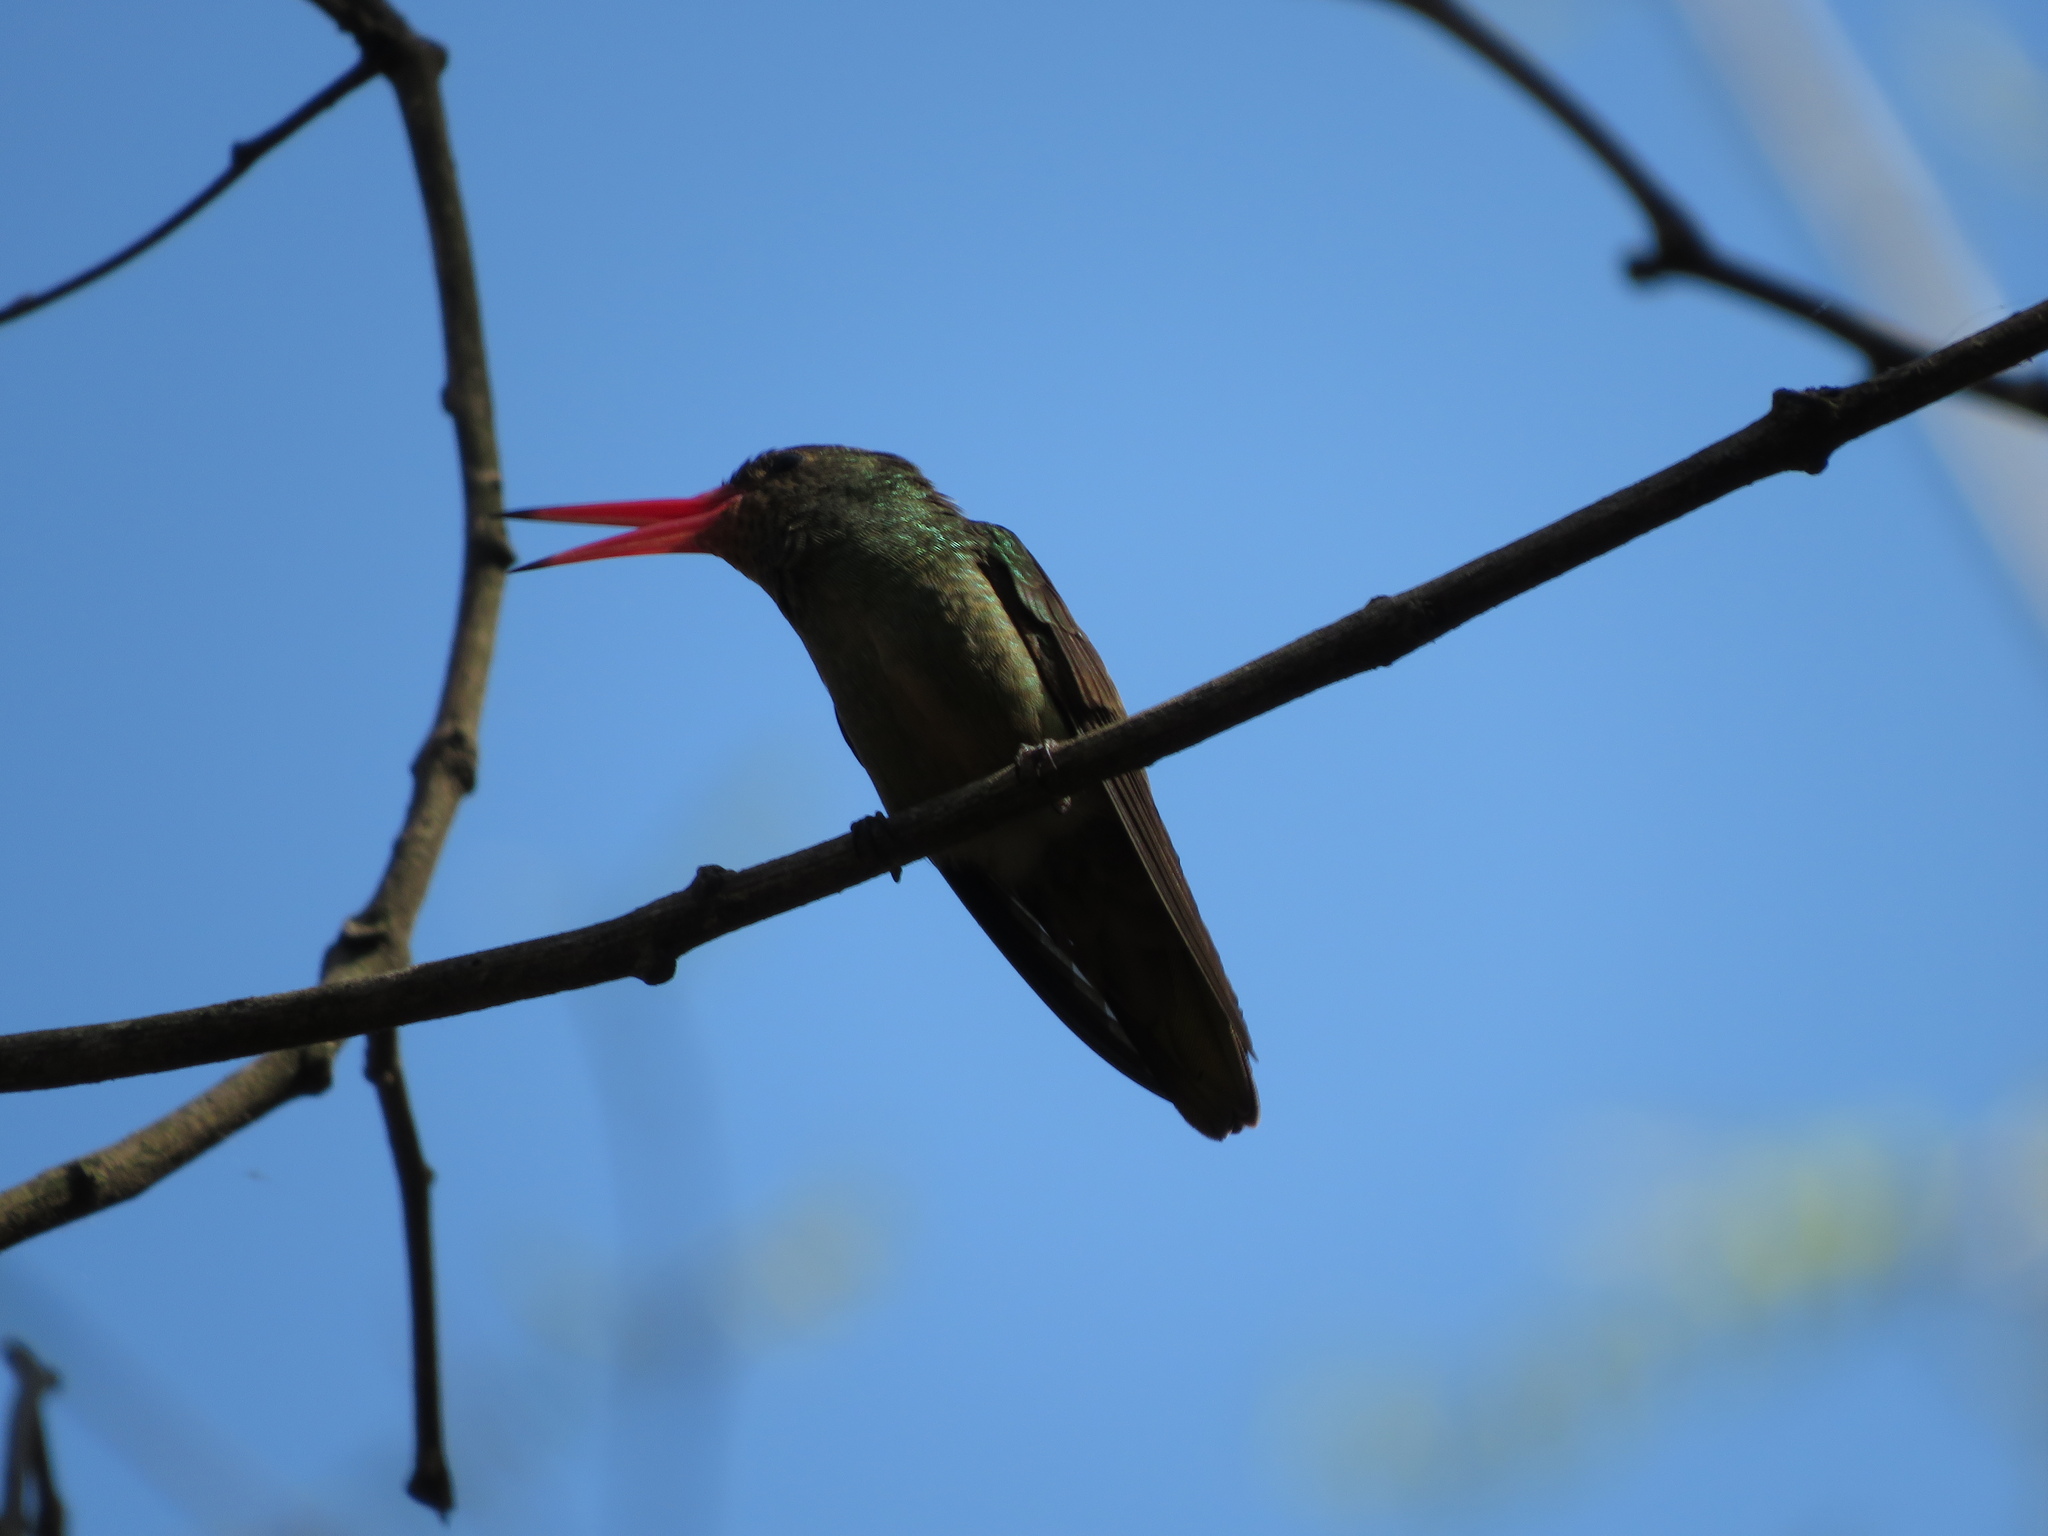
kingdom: Animalia
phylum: Chordata
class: Aves
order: Apodiformes
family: Trochilidae
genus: Hylocharis
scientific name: Hylocharis chrysura
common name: Gilded sapphire
